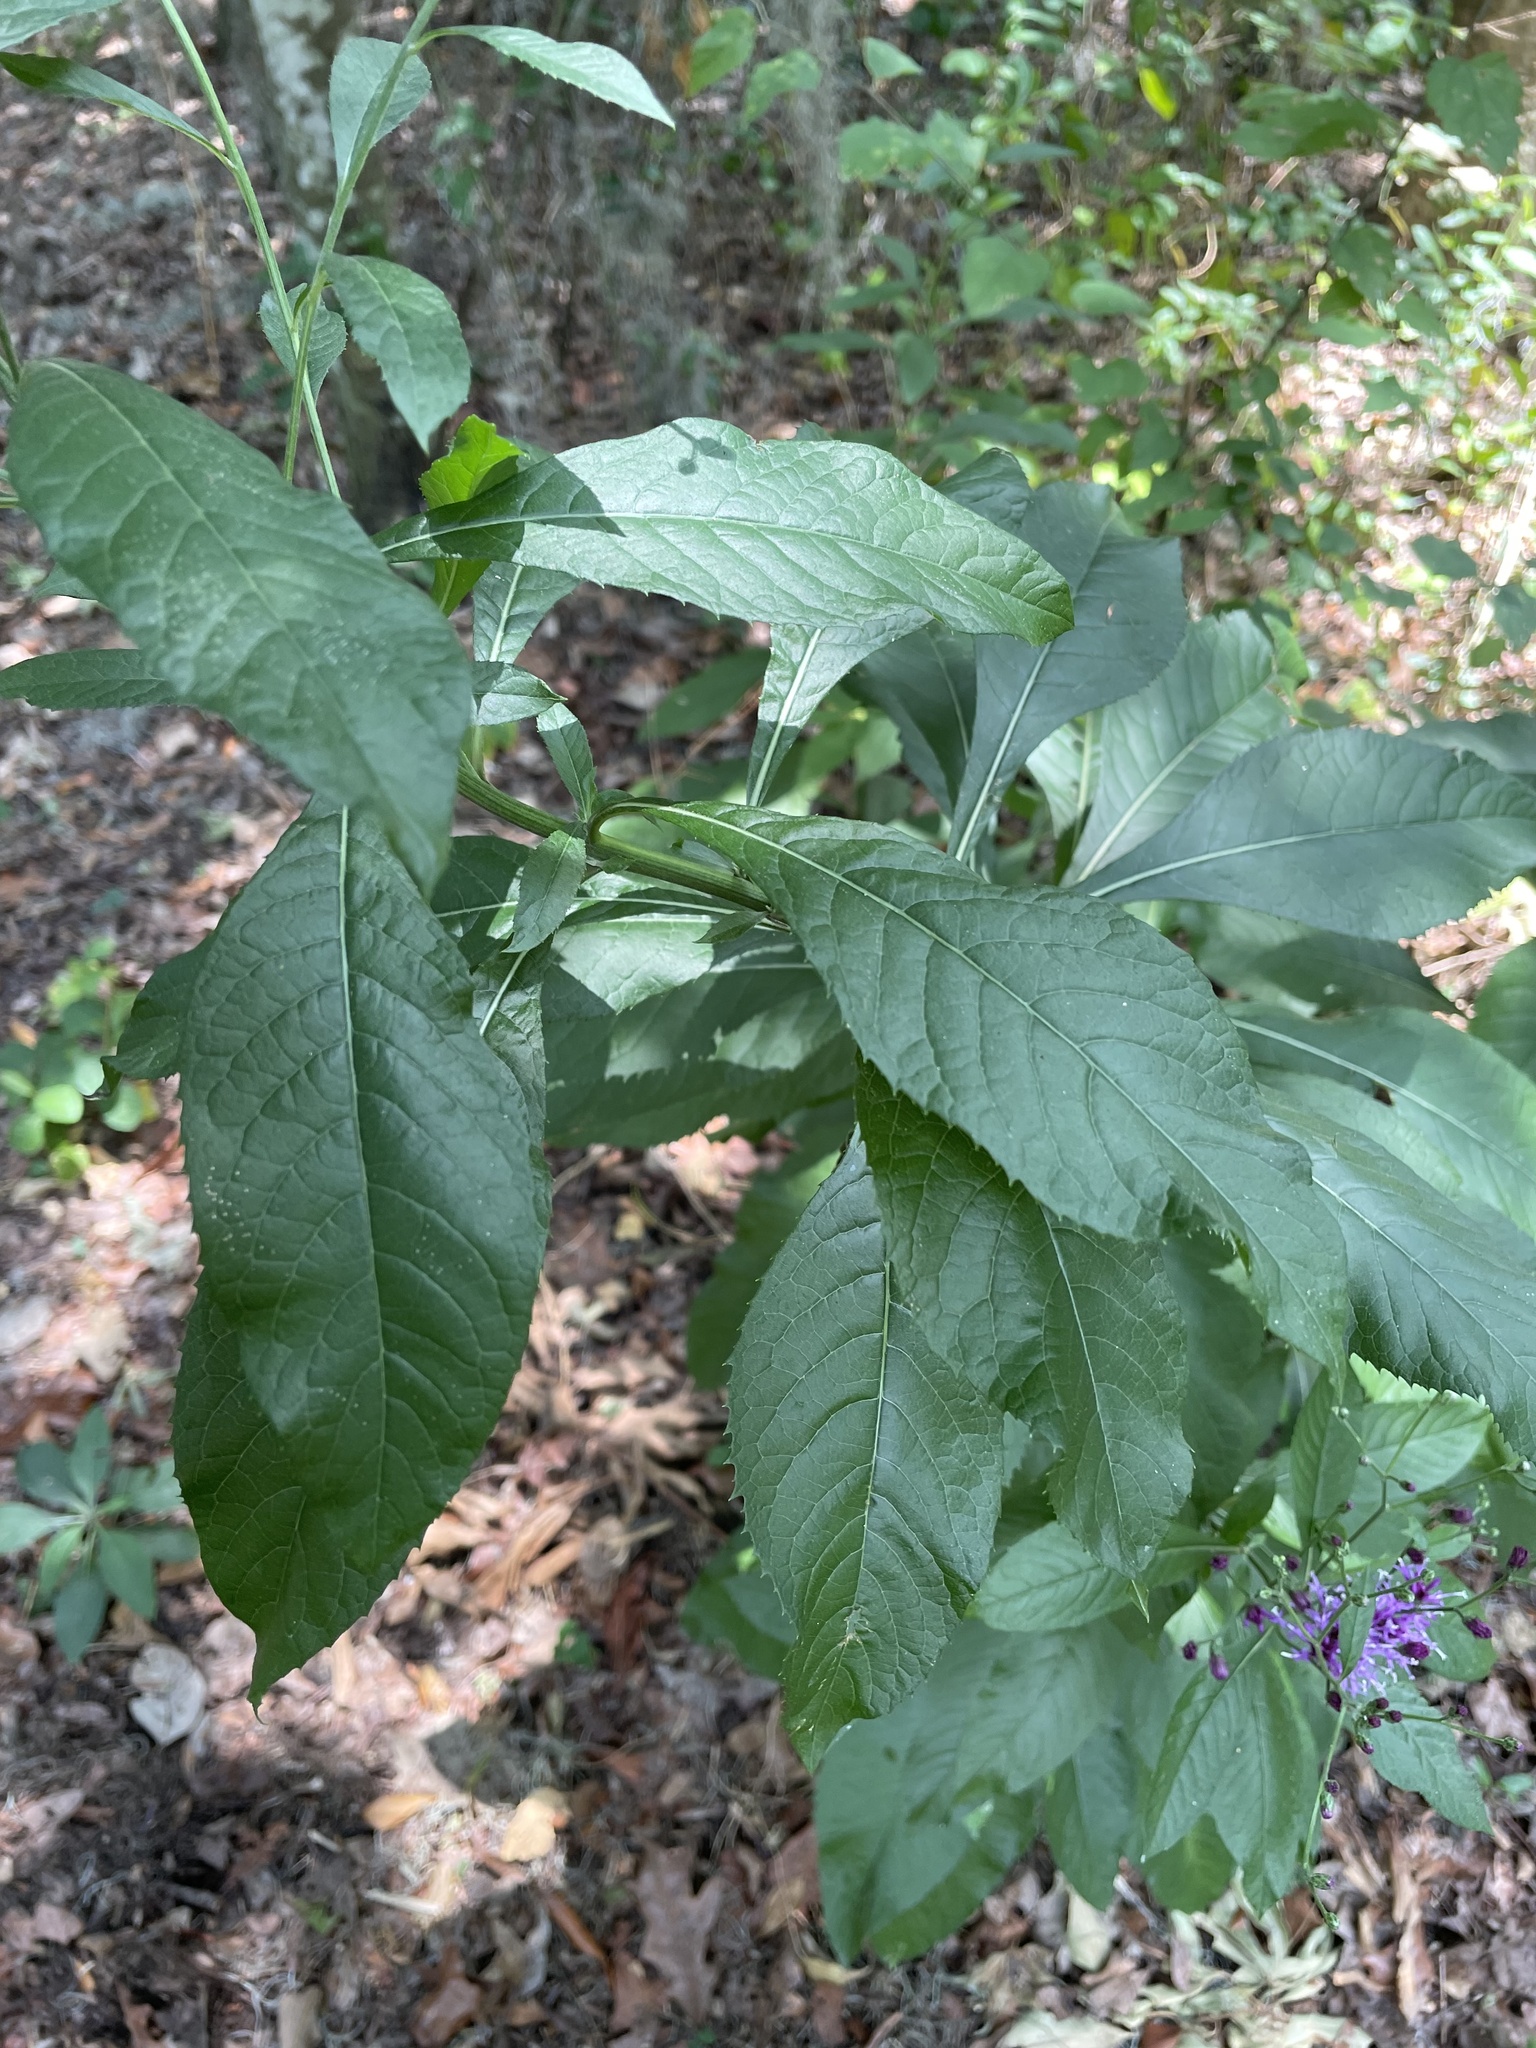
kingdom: Plantae
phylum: Tracheophyta
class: Magnoliopsida
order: Asterales
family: Asteraceae
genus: Vernonia
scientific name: Vernonia gigantea
